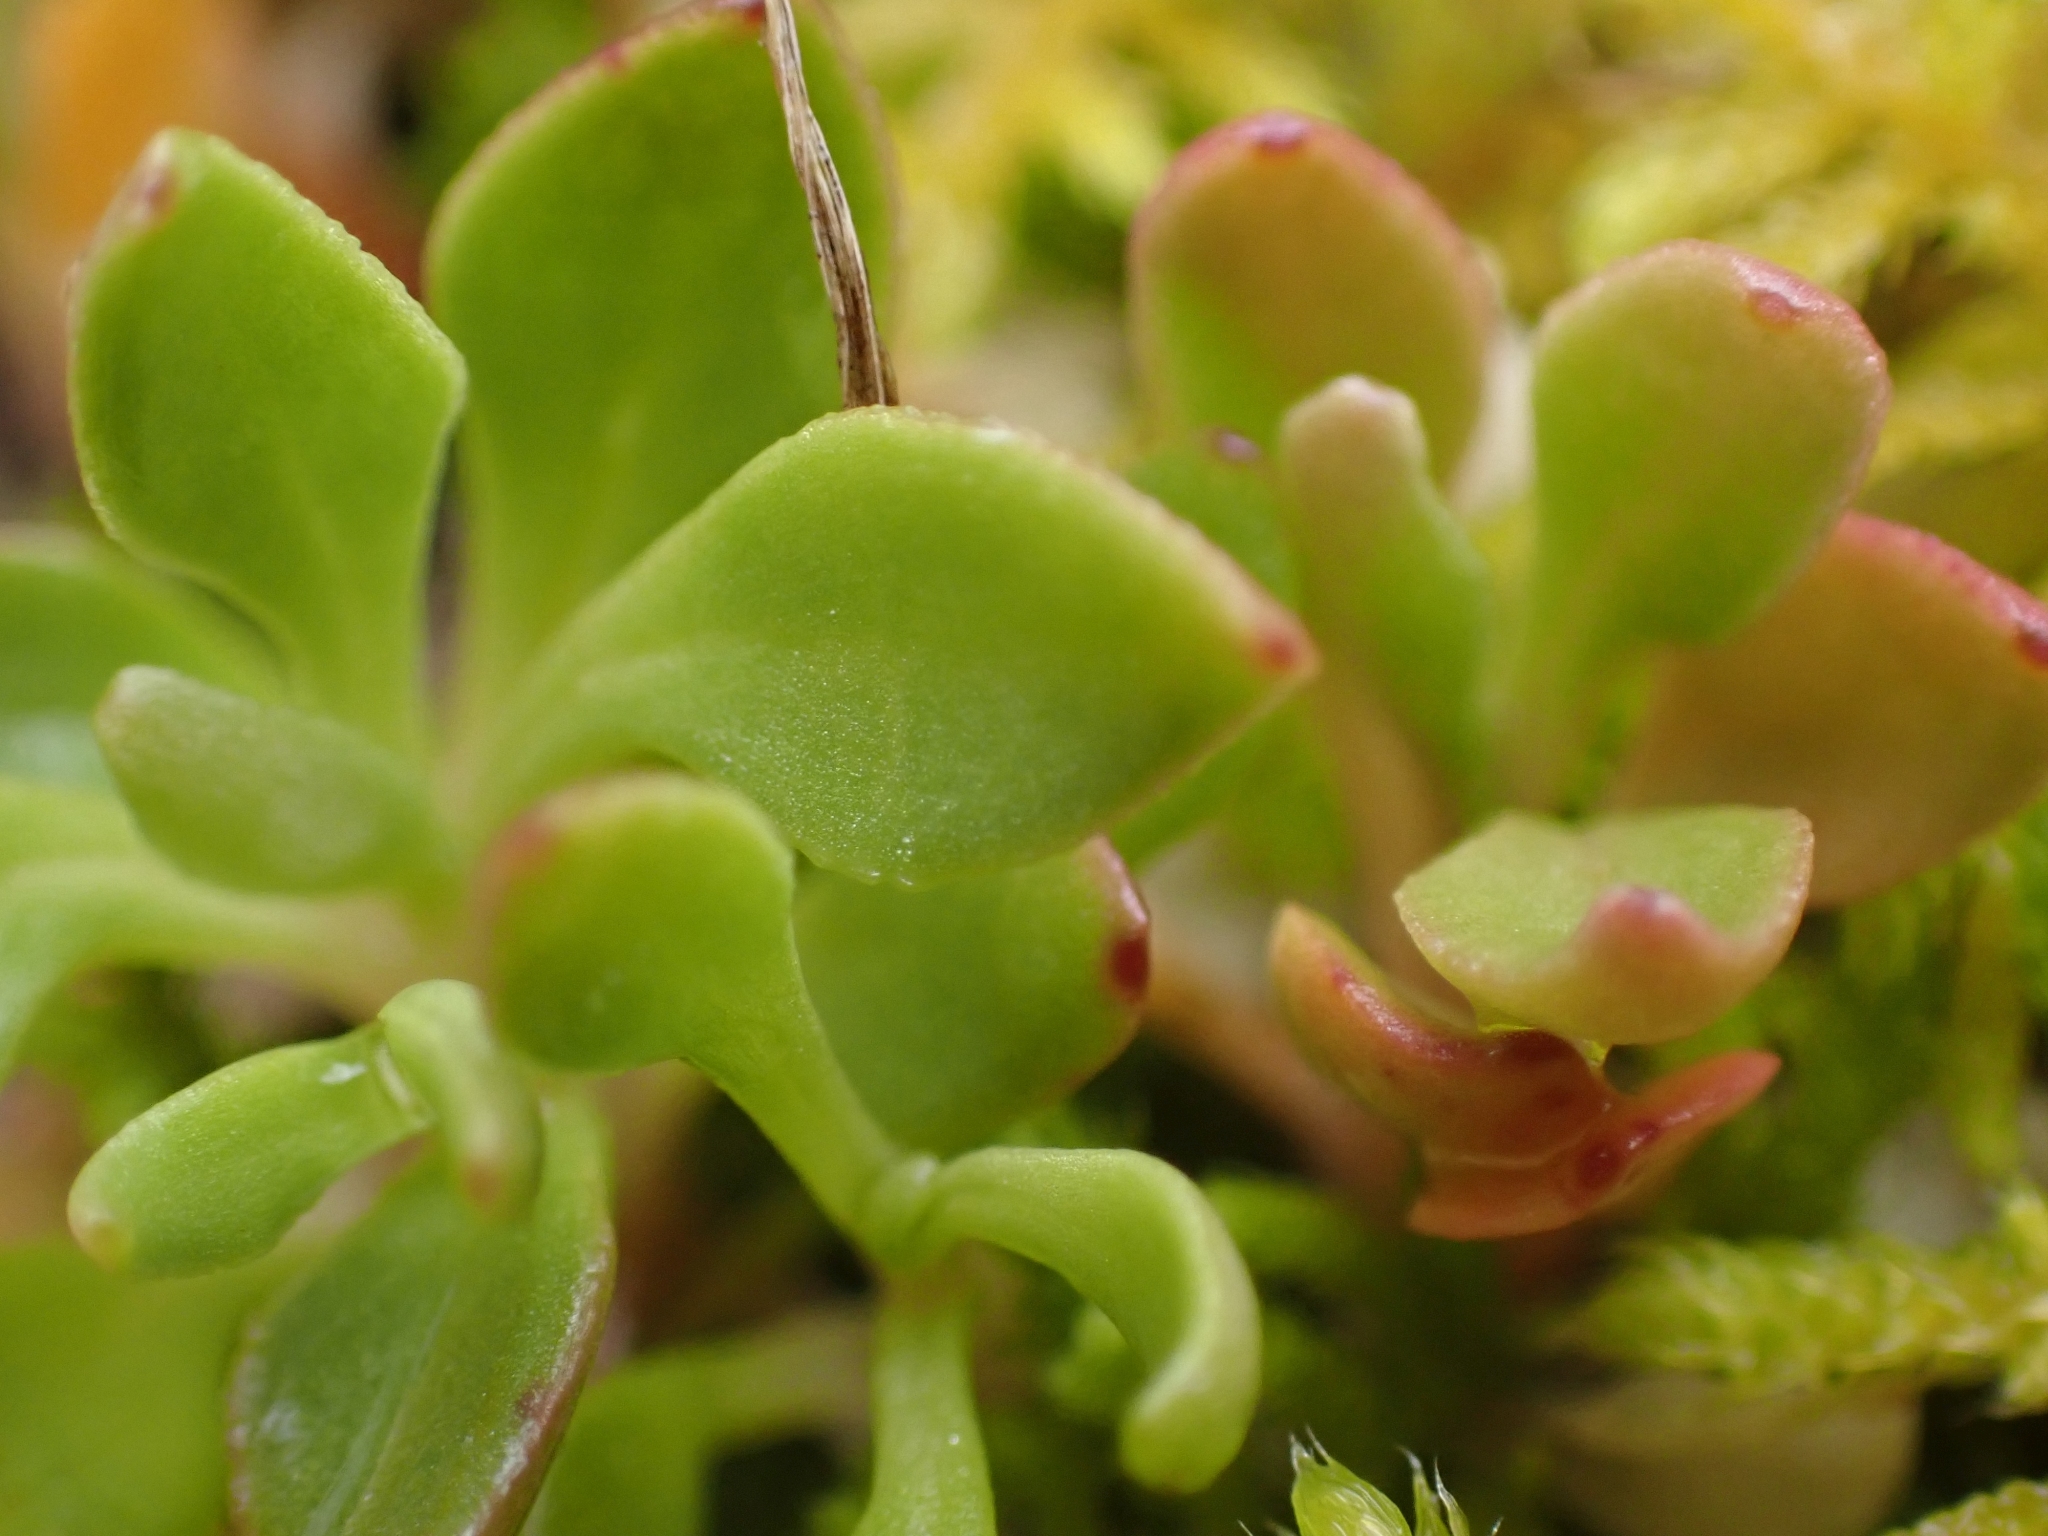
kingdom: Plantae
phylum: Tracheophyta
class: Magnoliopsida
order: Caryophyllales
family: Montiaceae
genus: Montia
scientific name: Montia parvifolia
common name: Small-leaved blinks
